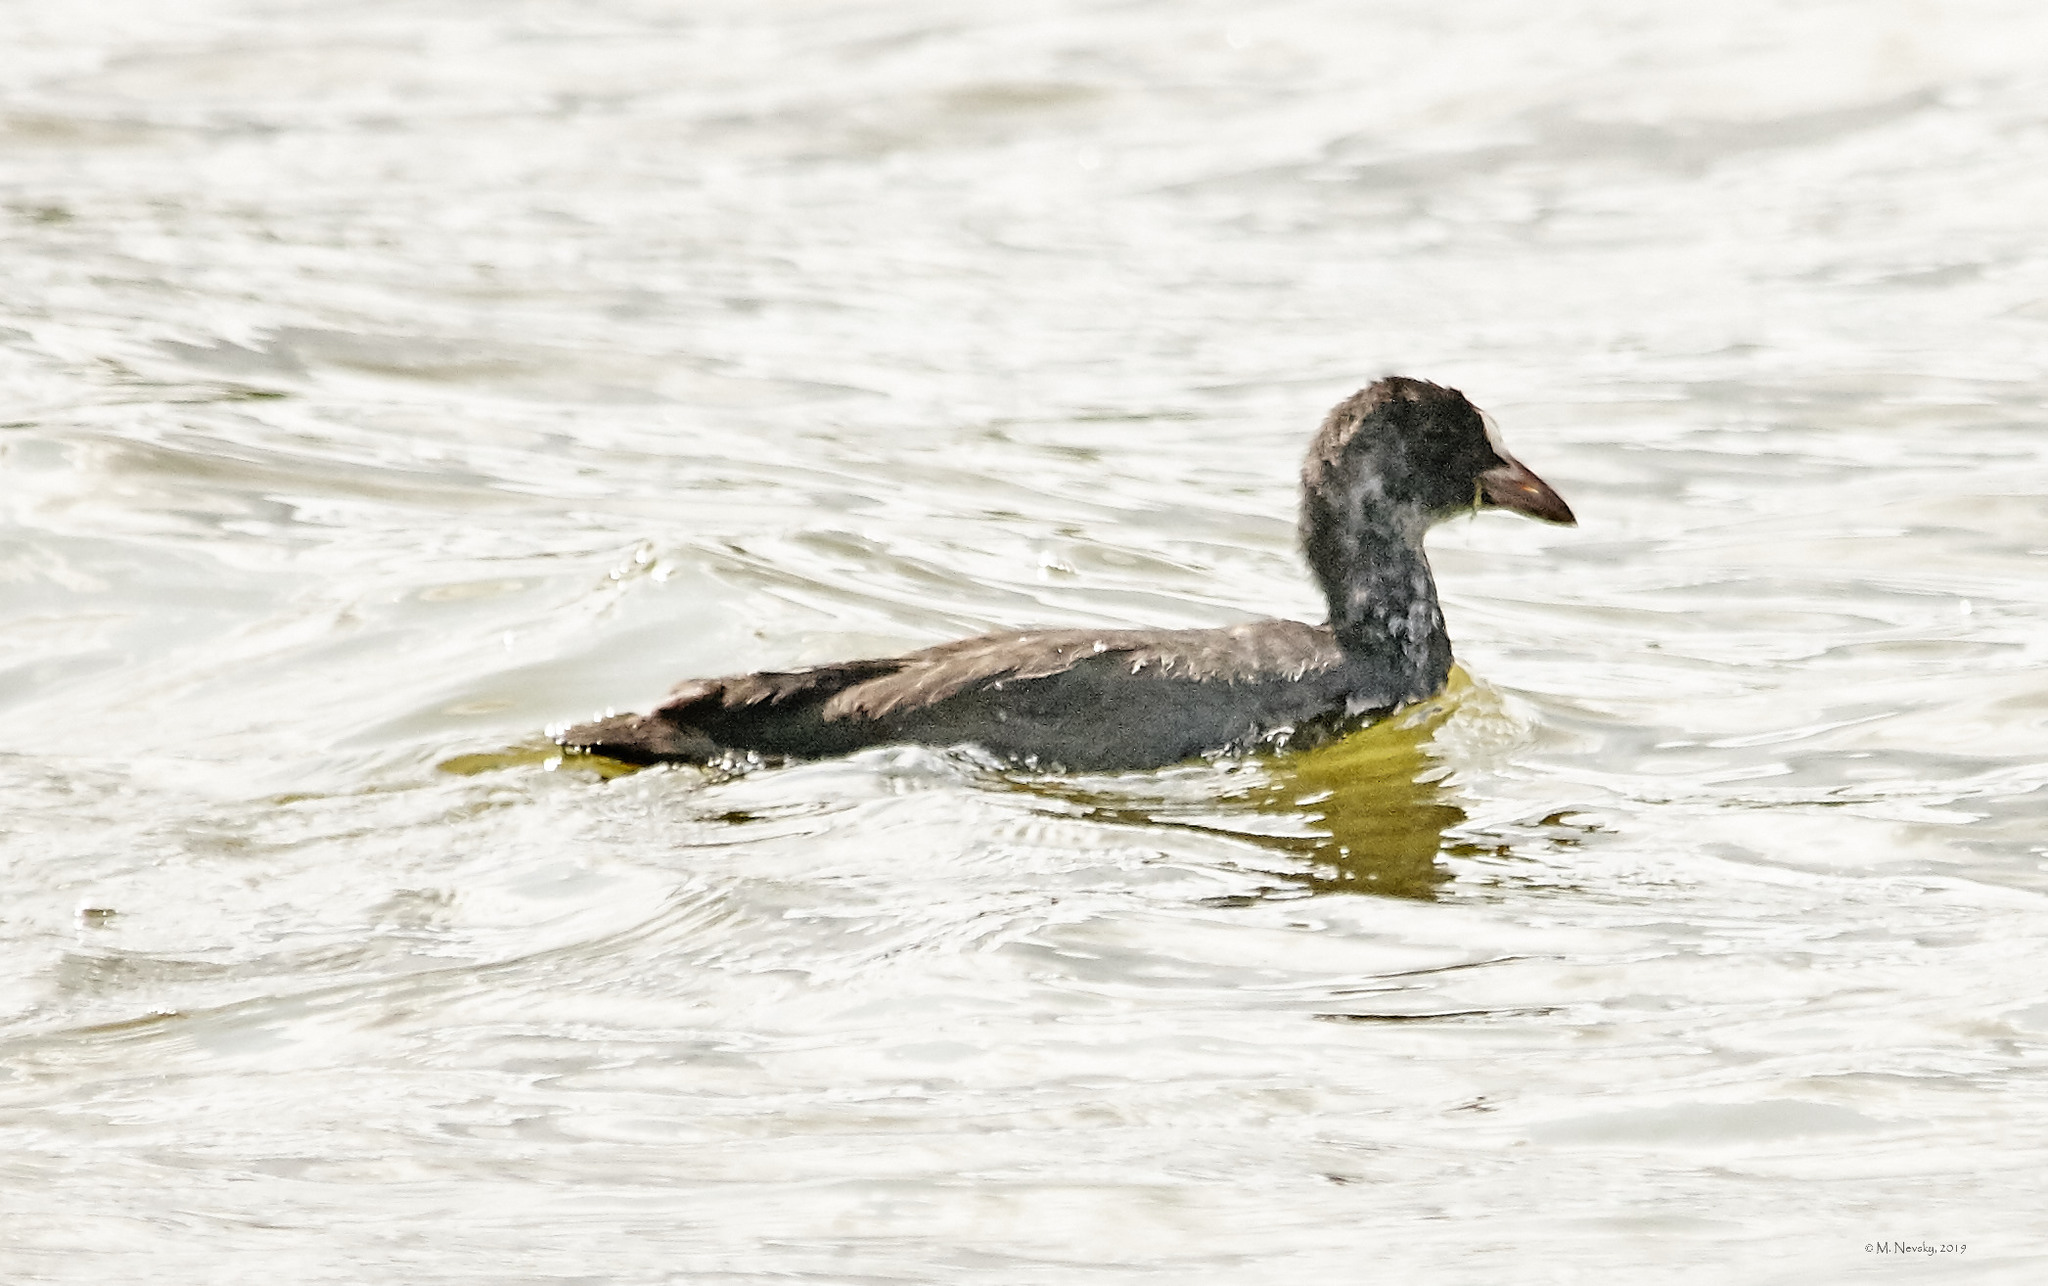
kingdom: Animalia
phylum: Chordata
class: Aves
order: Gruiformes
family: Rallidae
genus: Fulica
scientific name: Fulica atra
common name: Eurasian coot
